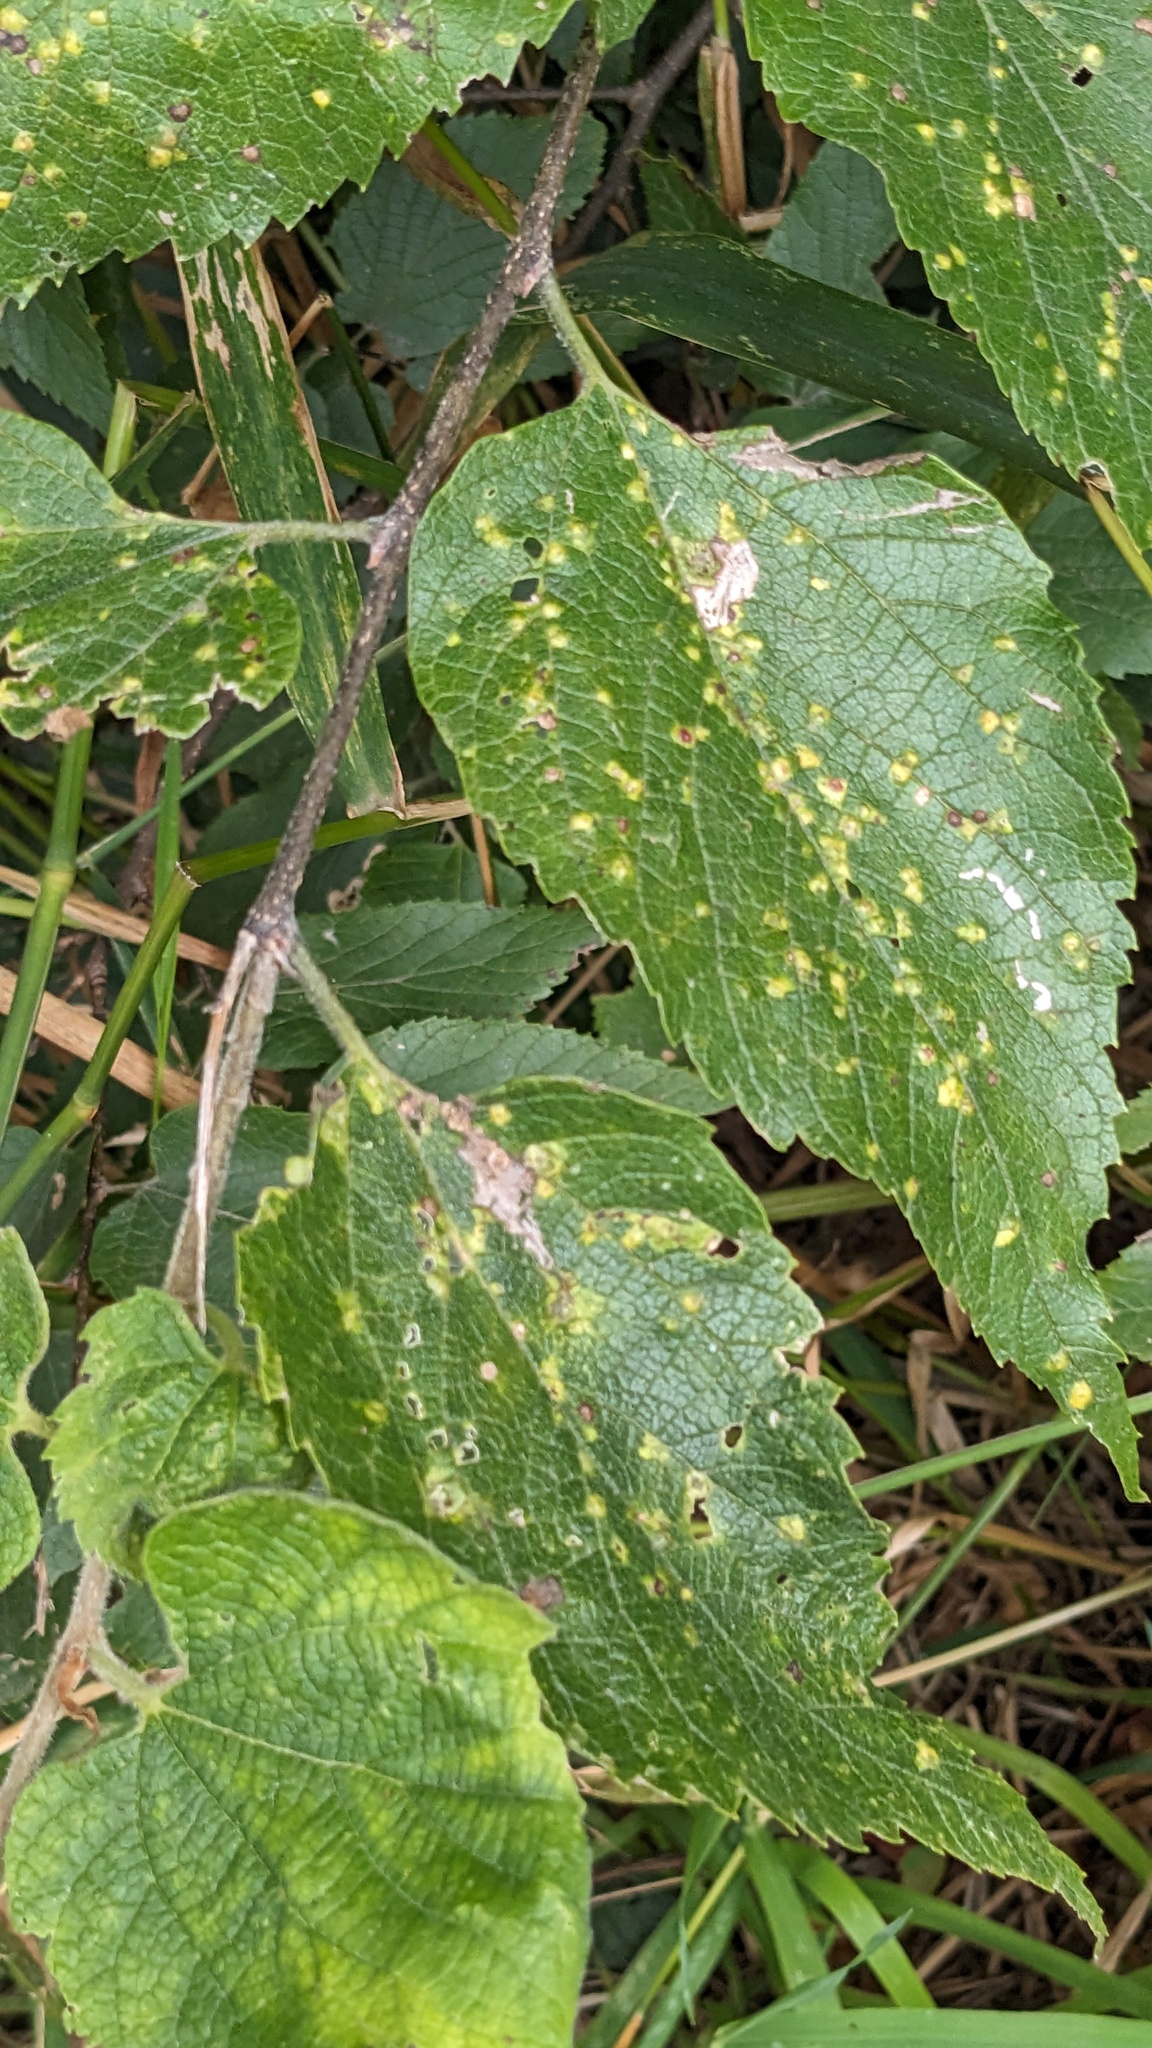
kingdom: Animalia
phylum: Arthropoda
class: Insecta
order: Hemiptera
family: Aphalaridae
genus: Pachypsylla
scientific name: Pachypsylla celtidisvesicula
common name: Hackberry blister gall psyllid
